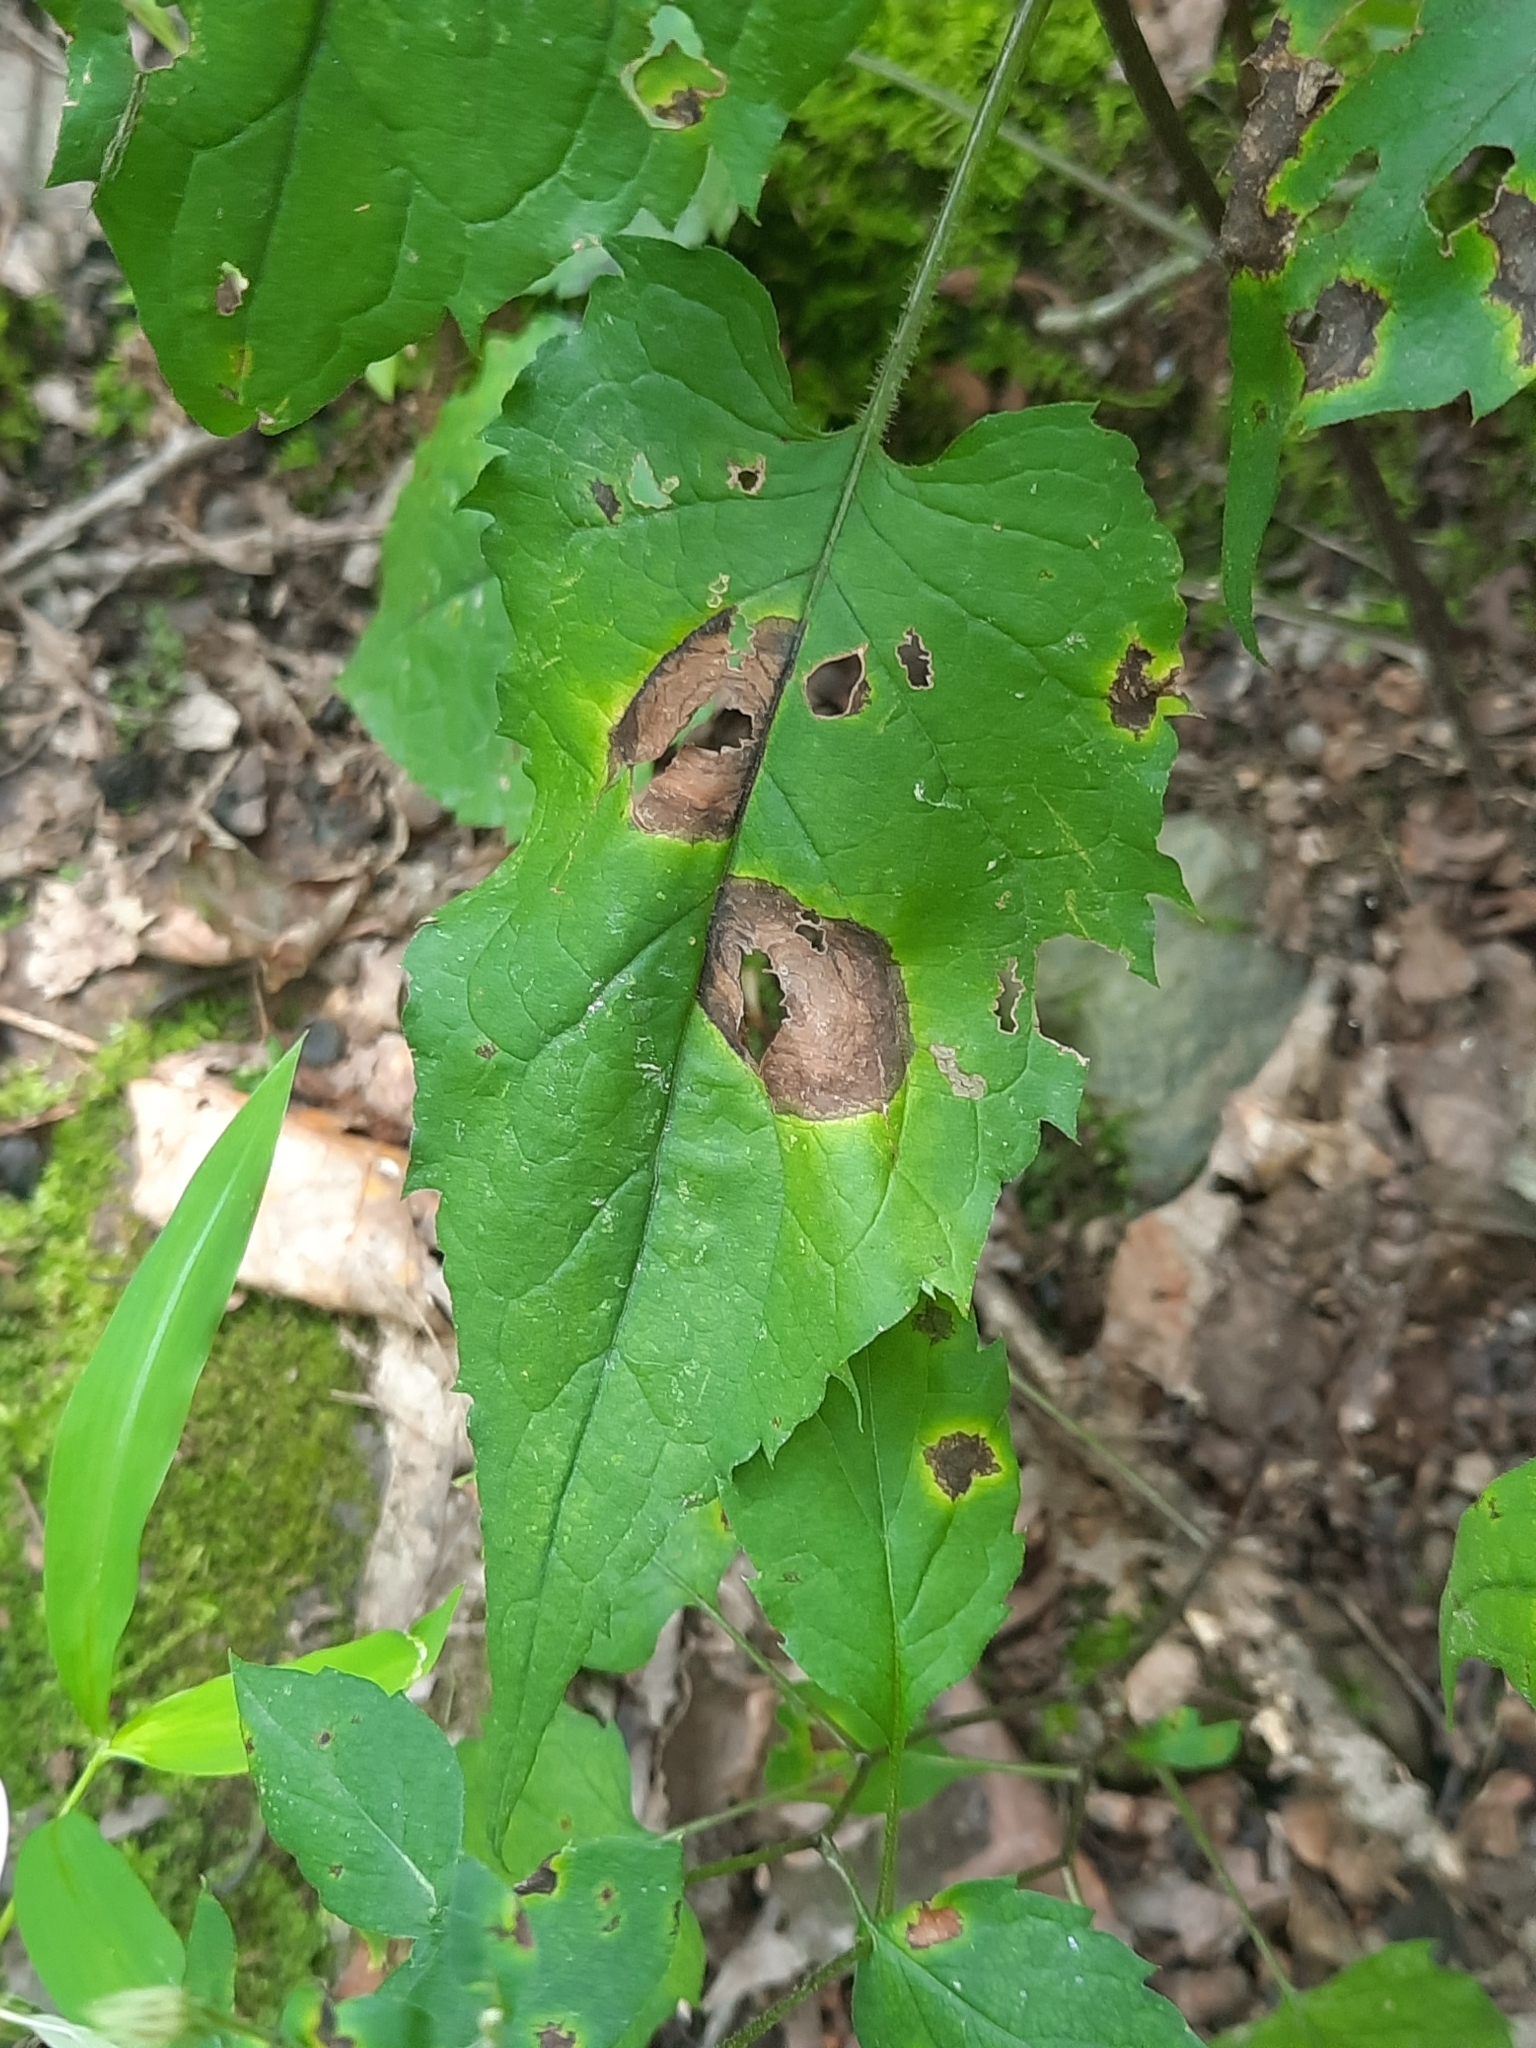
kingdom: Plantae
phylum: Tracheophyta
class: Magnoliopsida
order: Asterales
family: Asteraceae
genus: Eurybia
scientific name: Eurybia divaricata
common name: White wood aster
